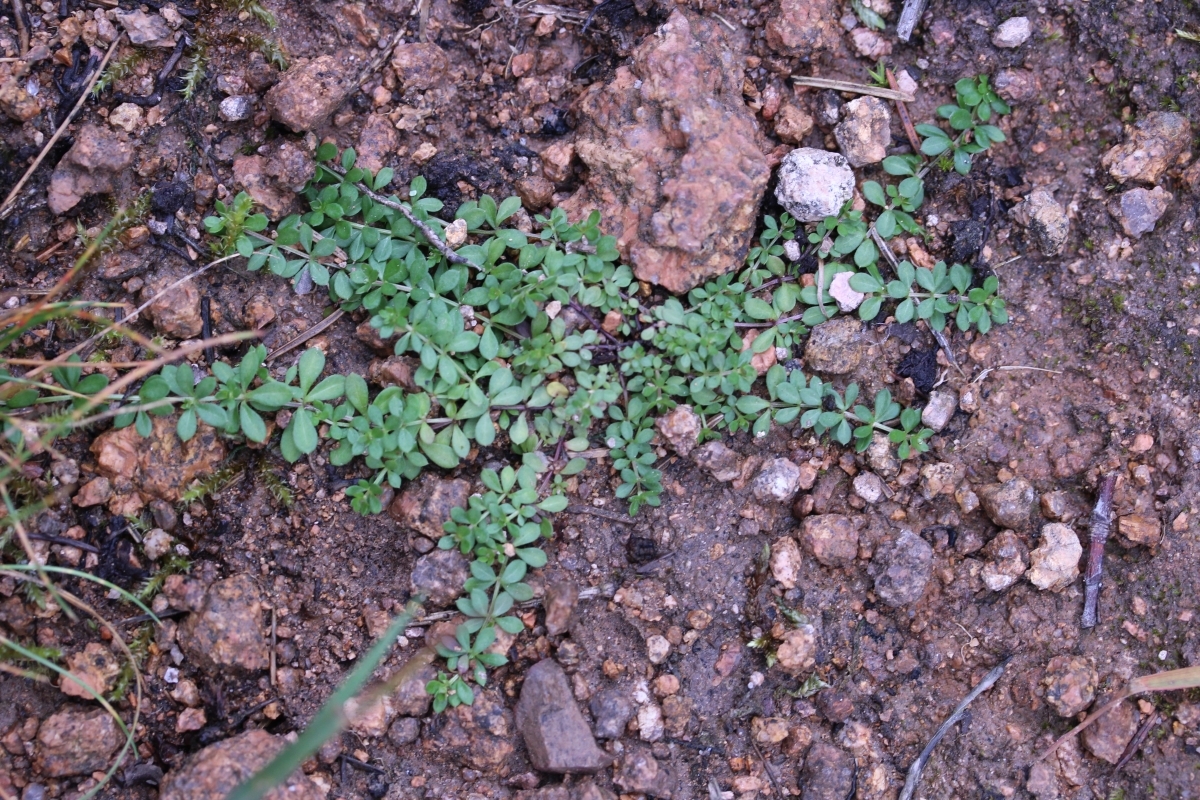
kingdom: Plantae
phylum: Tracheophyta
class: Magnoliopsida
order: Gentianales
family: Rubiaceae
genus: Galium
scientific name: Galium saxatile
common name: Heath bedstraw
